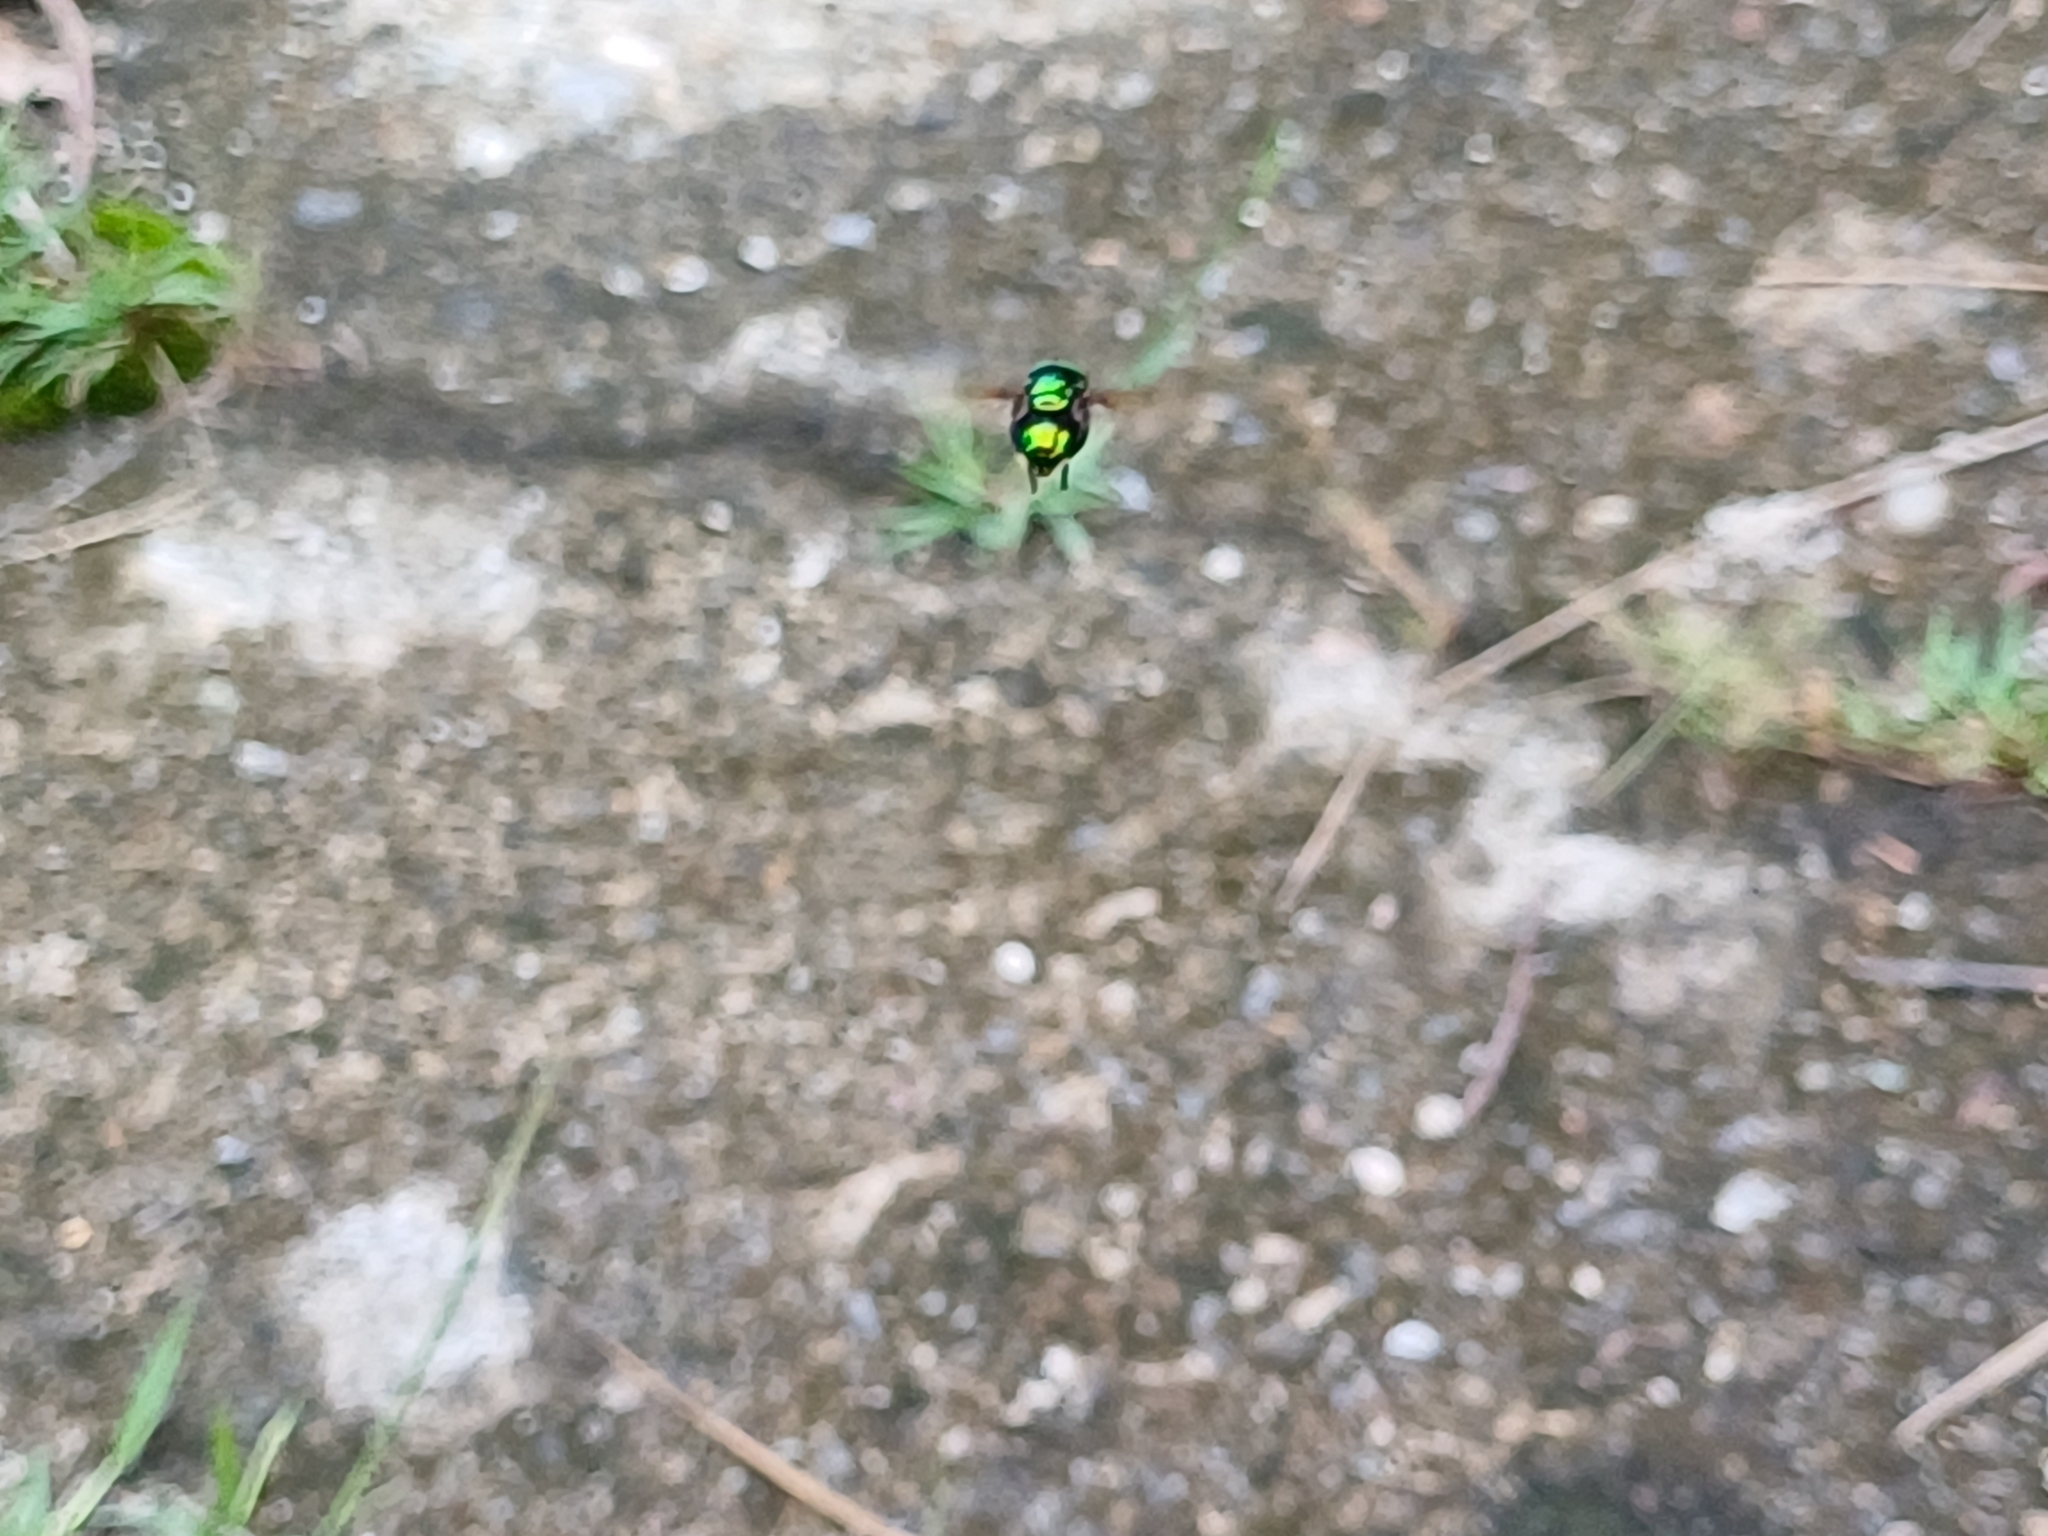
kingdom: Animalia
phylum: Arthropoda
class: Insecta
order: Diptera
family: Syrphidae
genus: Ornidia
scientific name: Ornidia obesa
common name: Syrphid fly
